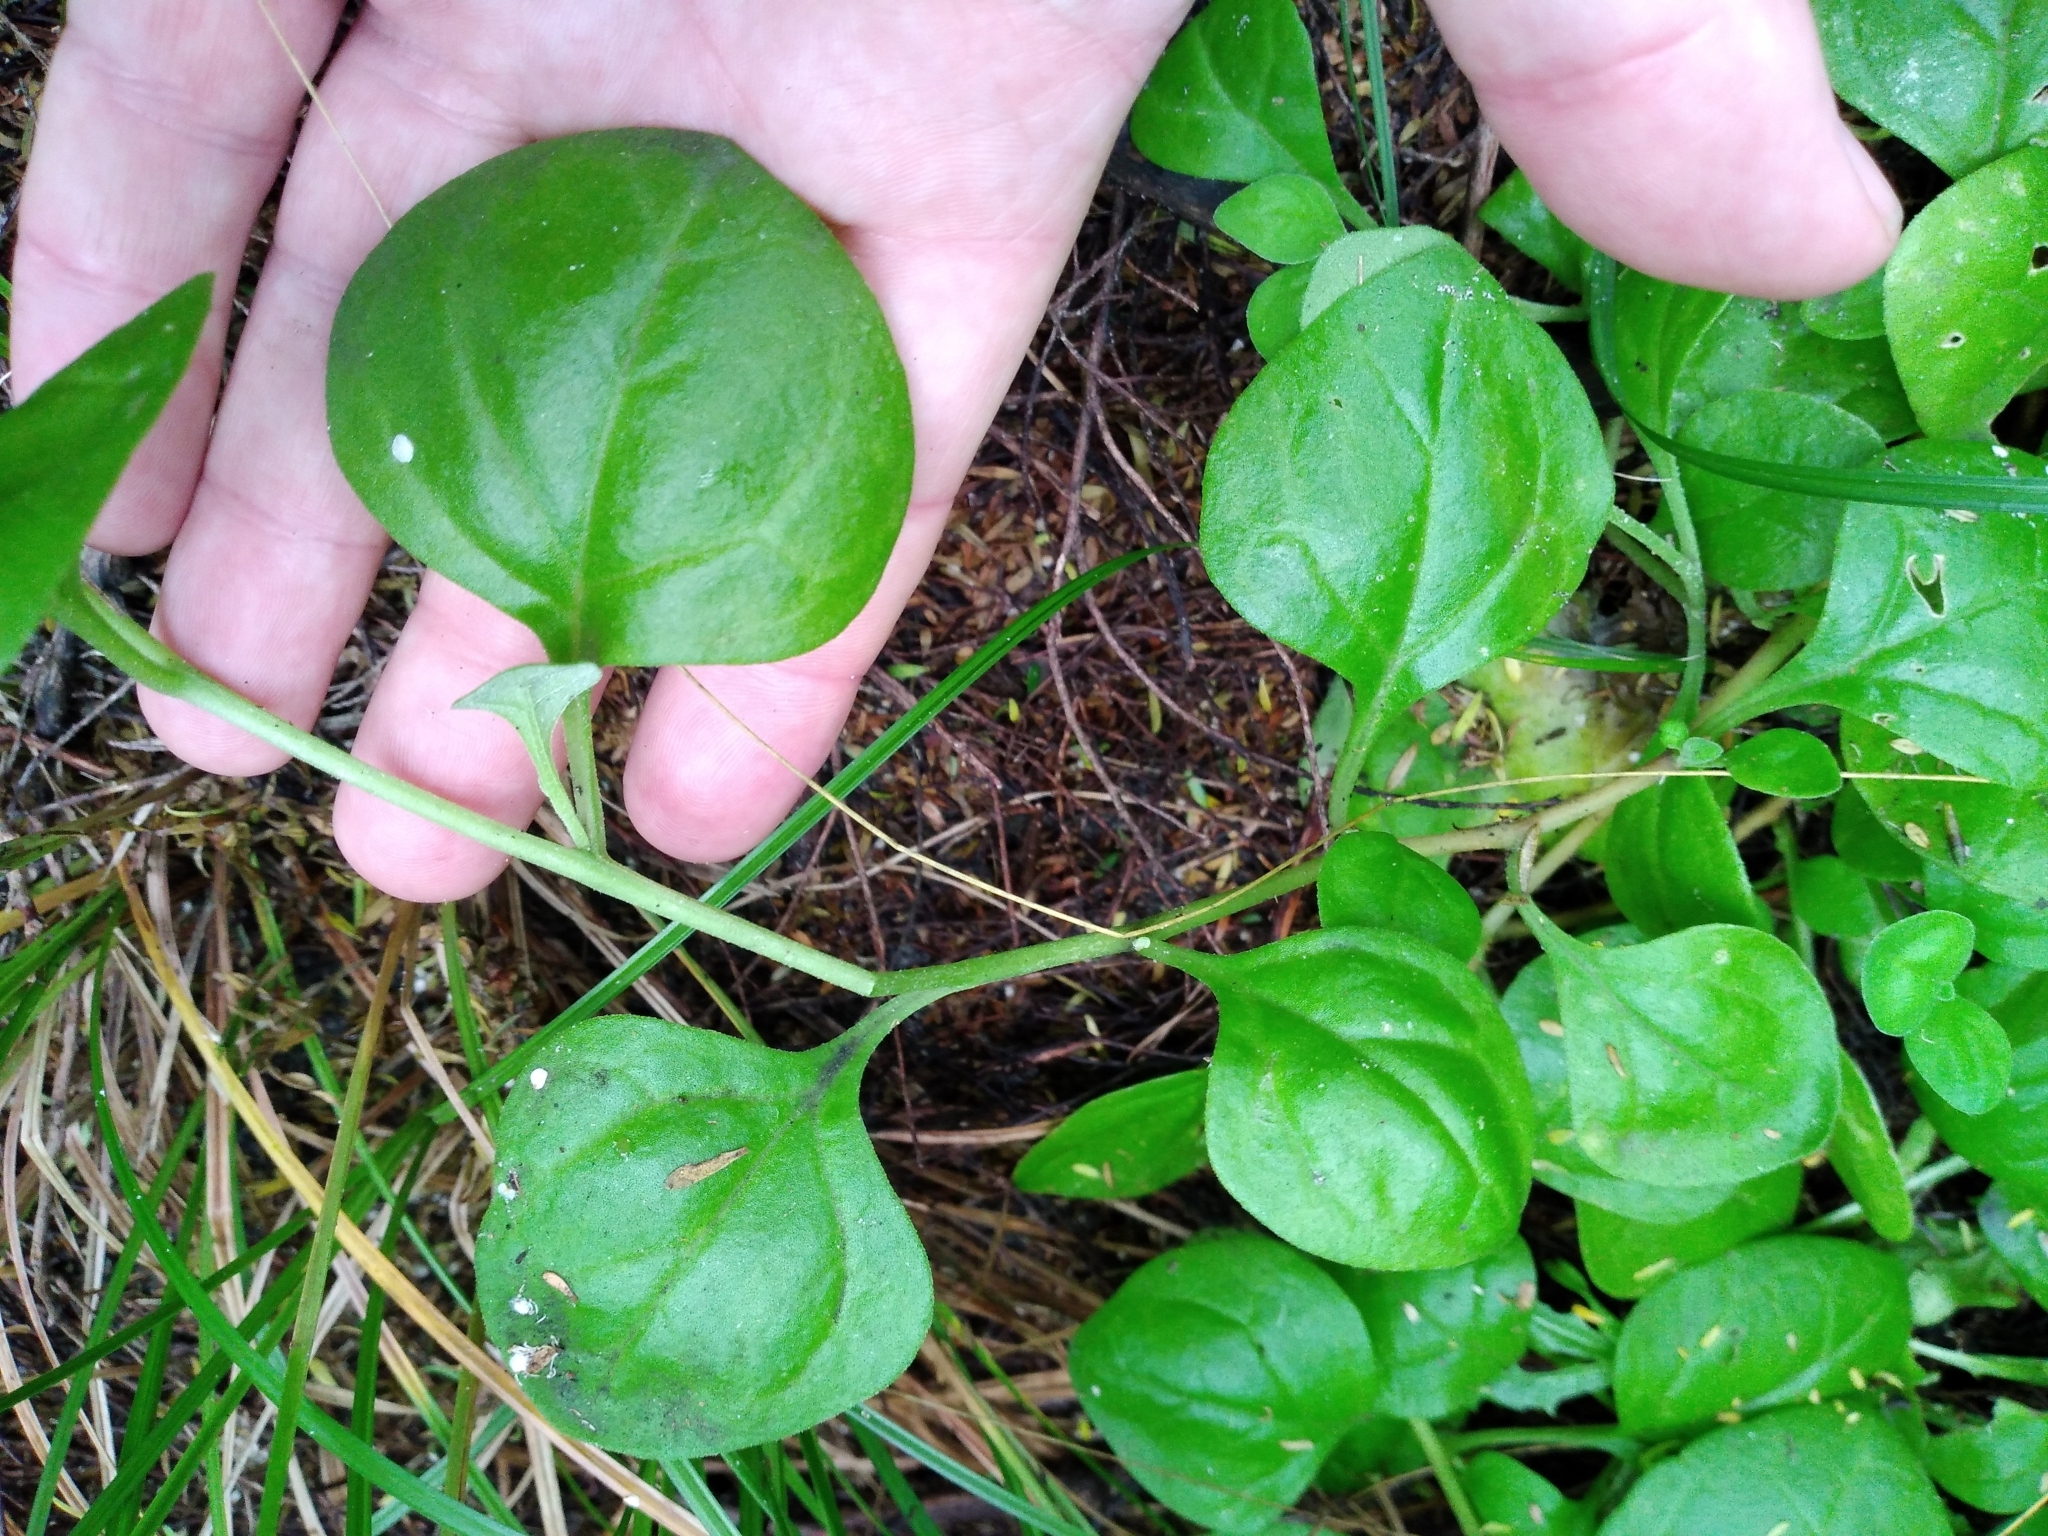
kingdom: Plantae
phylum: Tracheophyta
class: Magnoliopsida
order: Caryophyllales
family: Aizoaceae
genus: Tetragonia
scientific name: Tetragonia implexicoma
